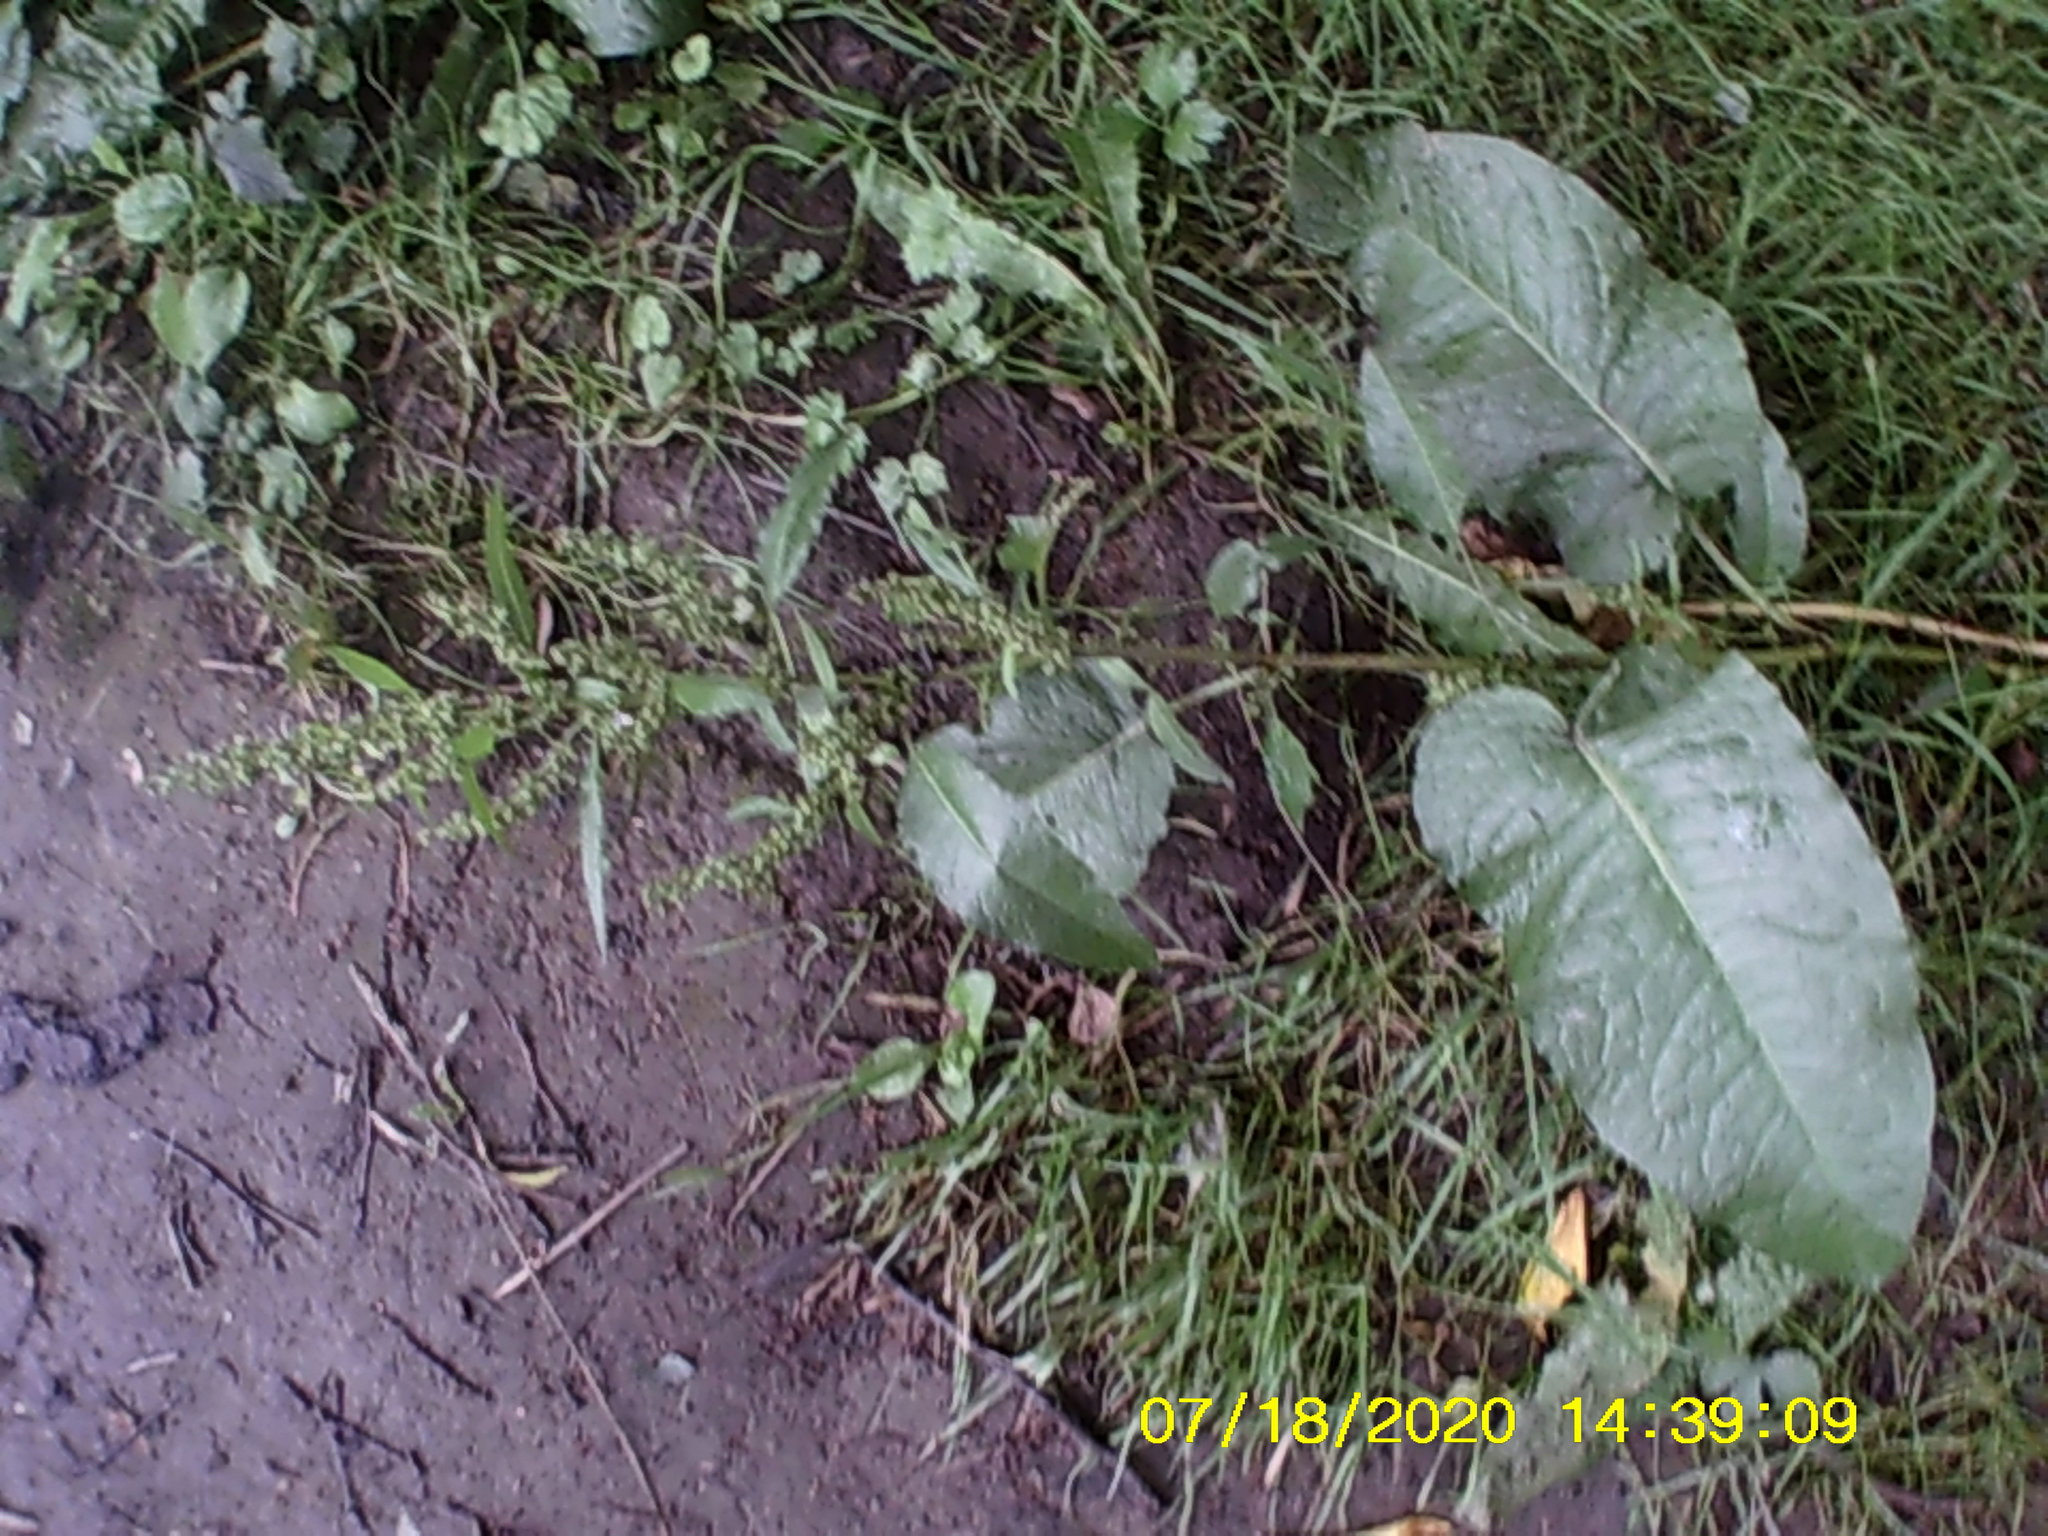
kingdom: Plantae
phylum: Tracheophyta
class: Magnoliopsida
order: Caryophyllales
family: Polygonaceae
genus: Rumex
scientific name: Rumex obtusifolius
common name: Bitter dock
